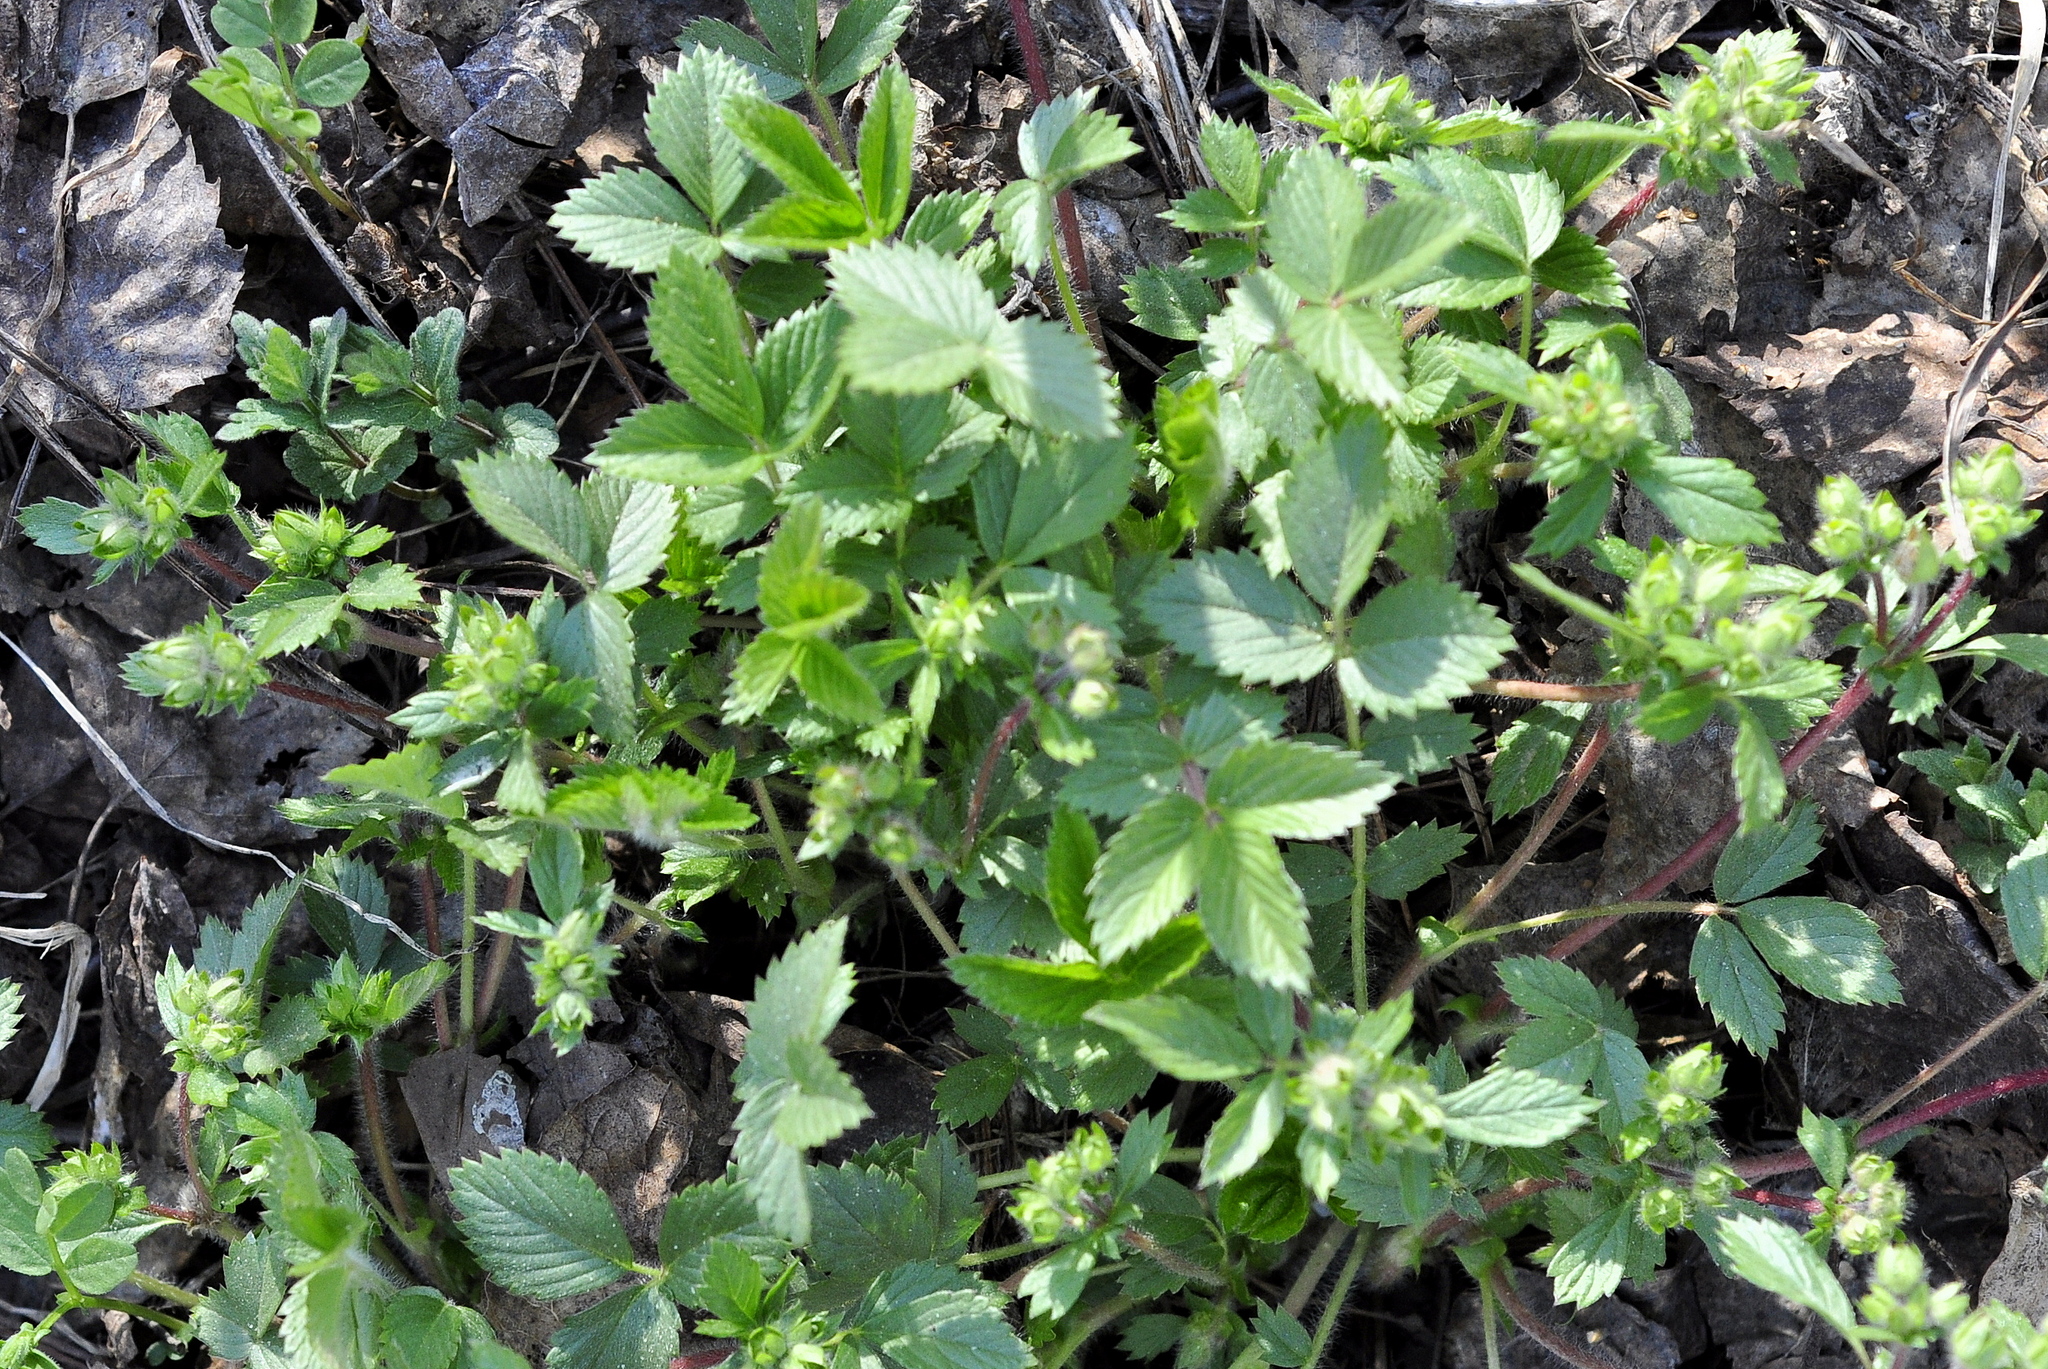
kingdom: Plantae
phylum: Tracheophyta
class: Magnoliopsida
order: Rosales
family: Rosaceae
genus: Potentilla
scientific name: Potentilla fragarioides
